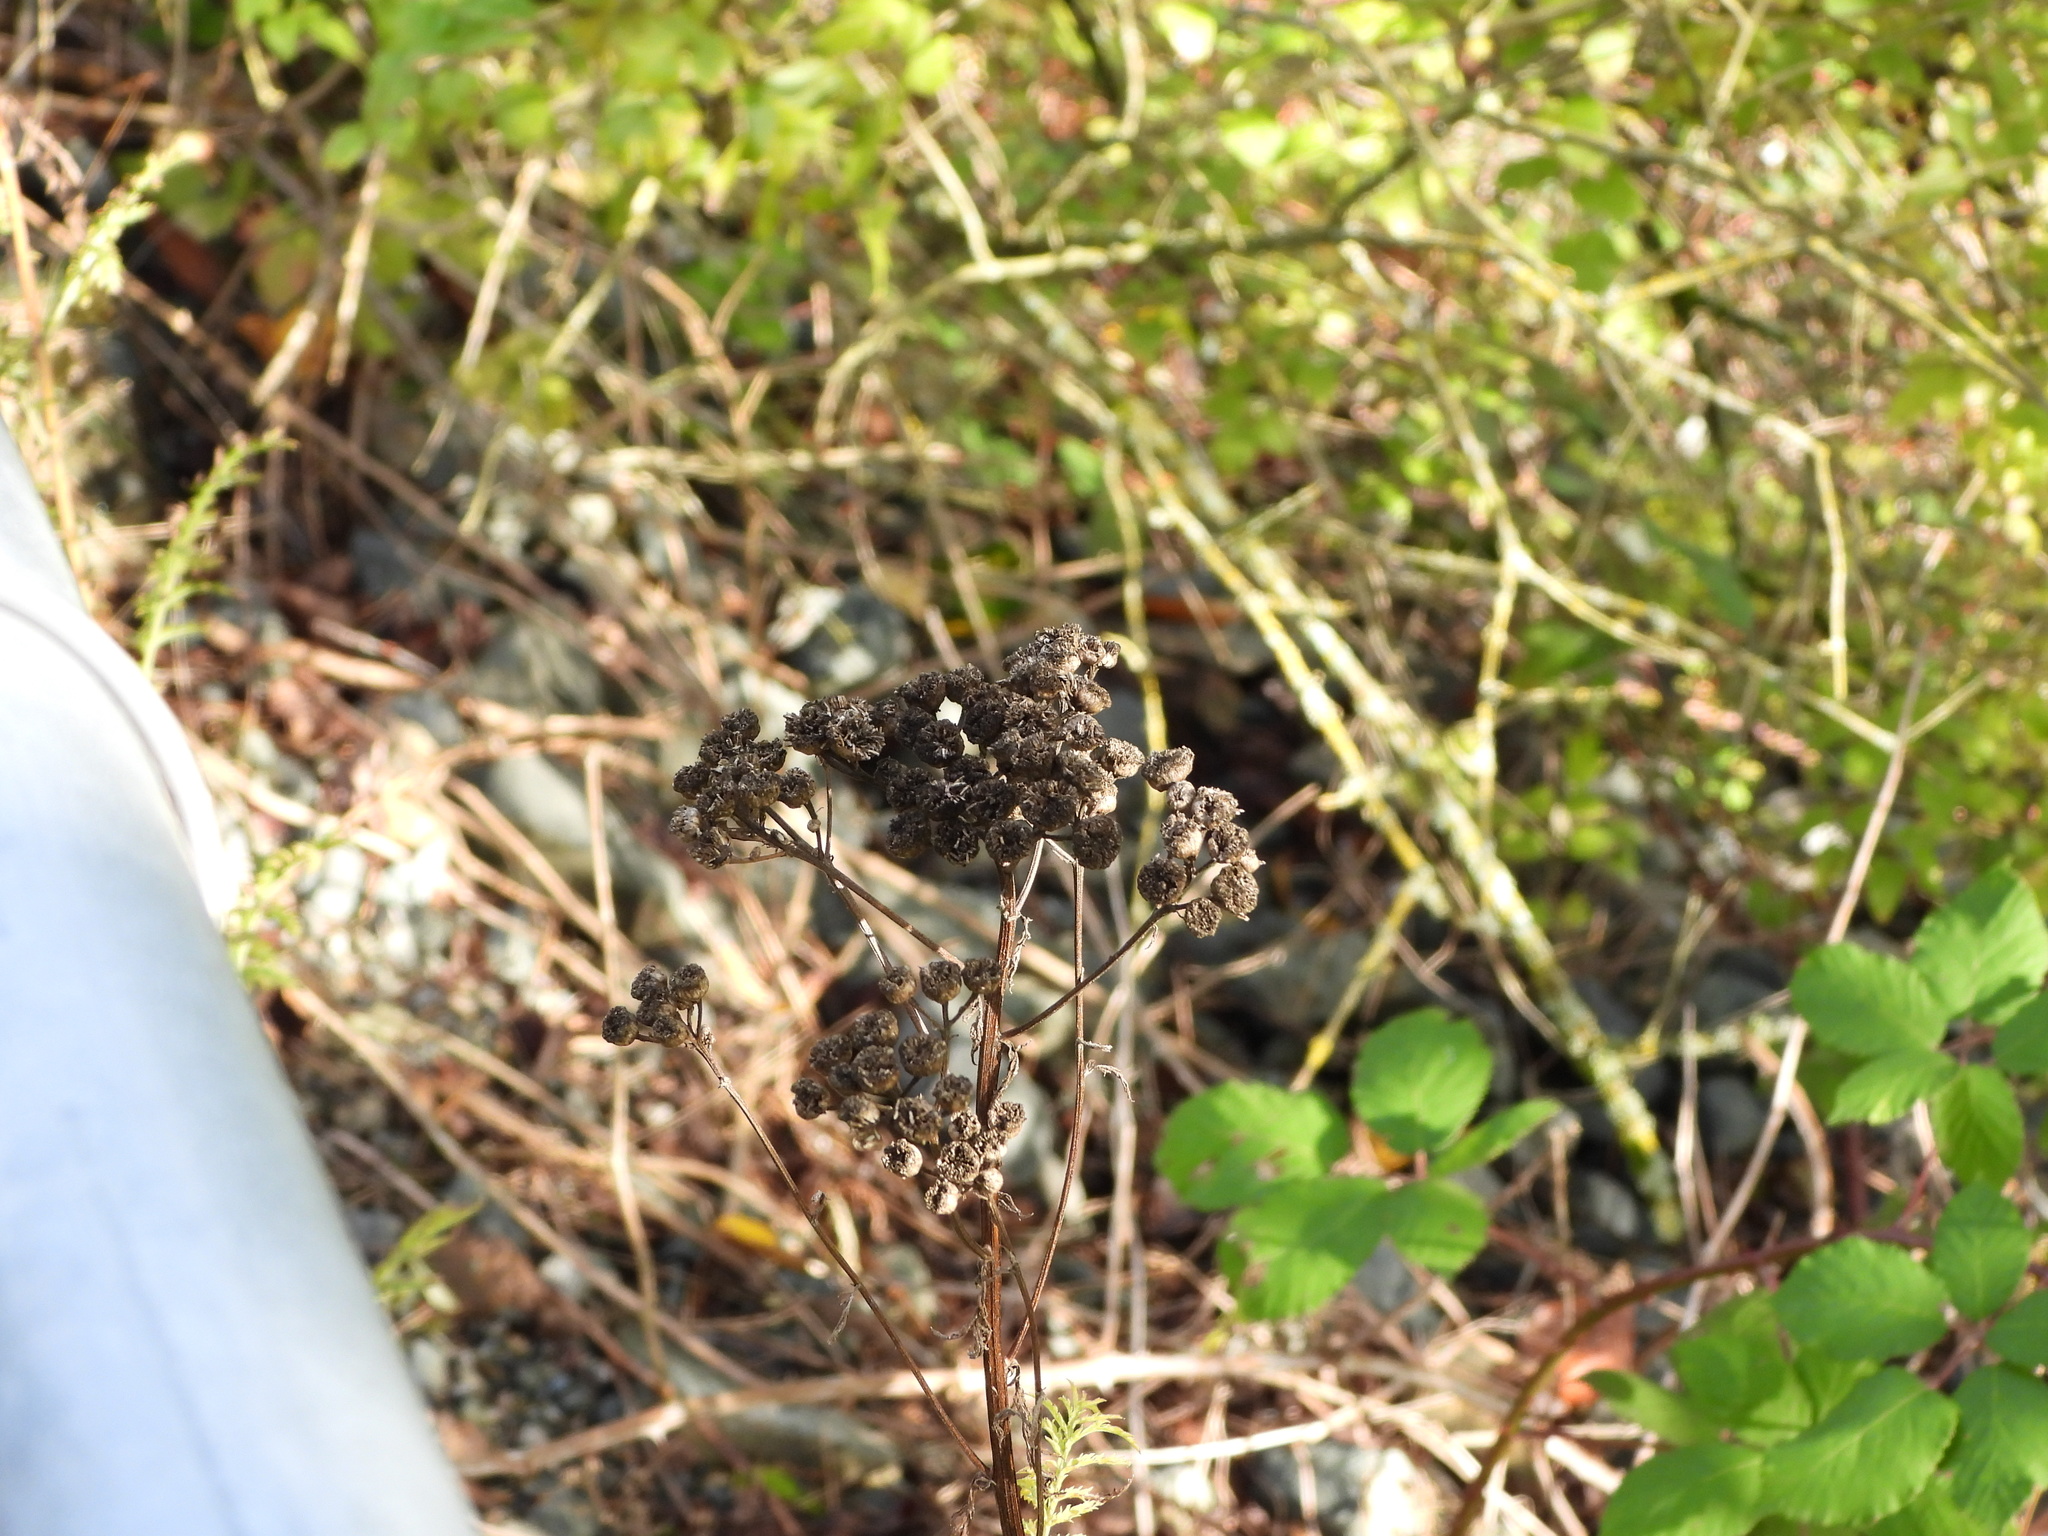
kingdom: Plantae
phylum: Tracheophyta
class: Magnoliopsida
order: Asterales
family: Asteraceae
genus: Tanacetum
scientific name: Tanacetum vulgare
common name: Common tansy
